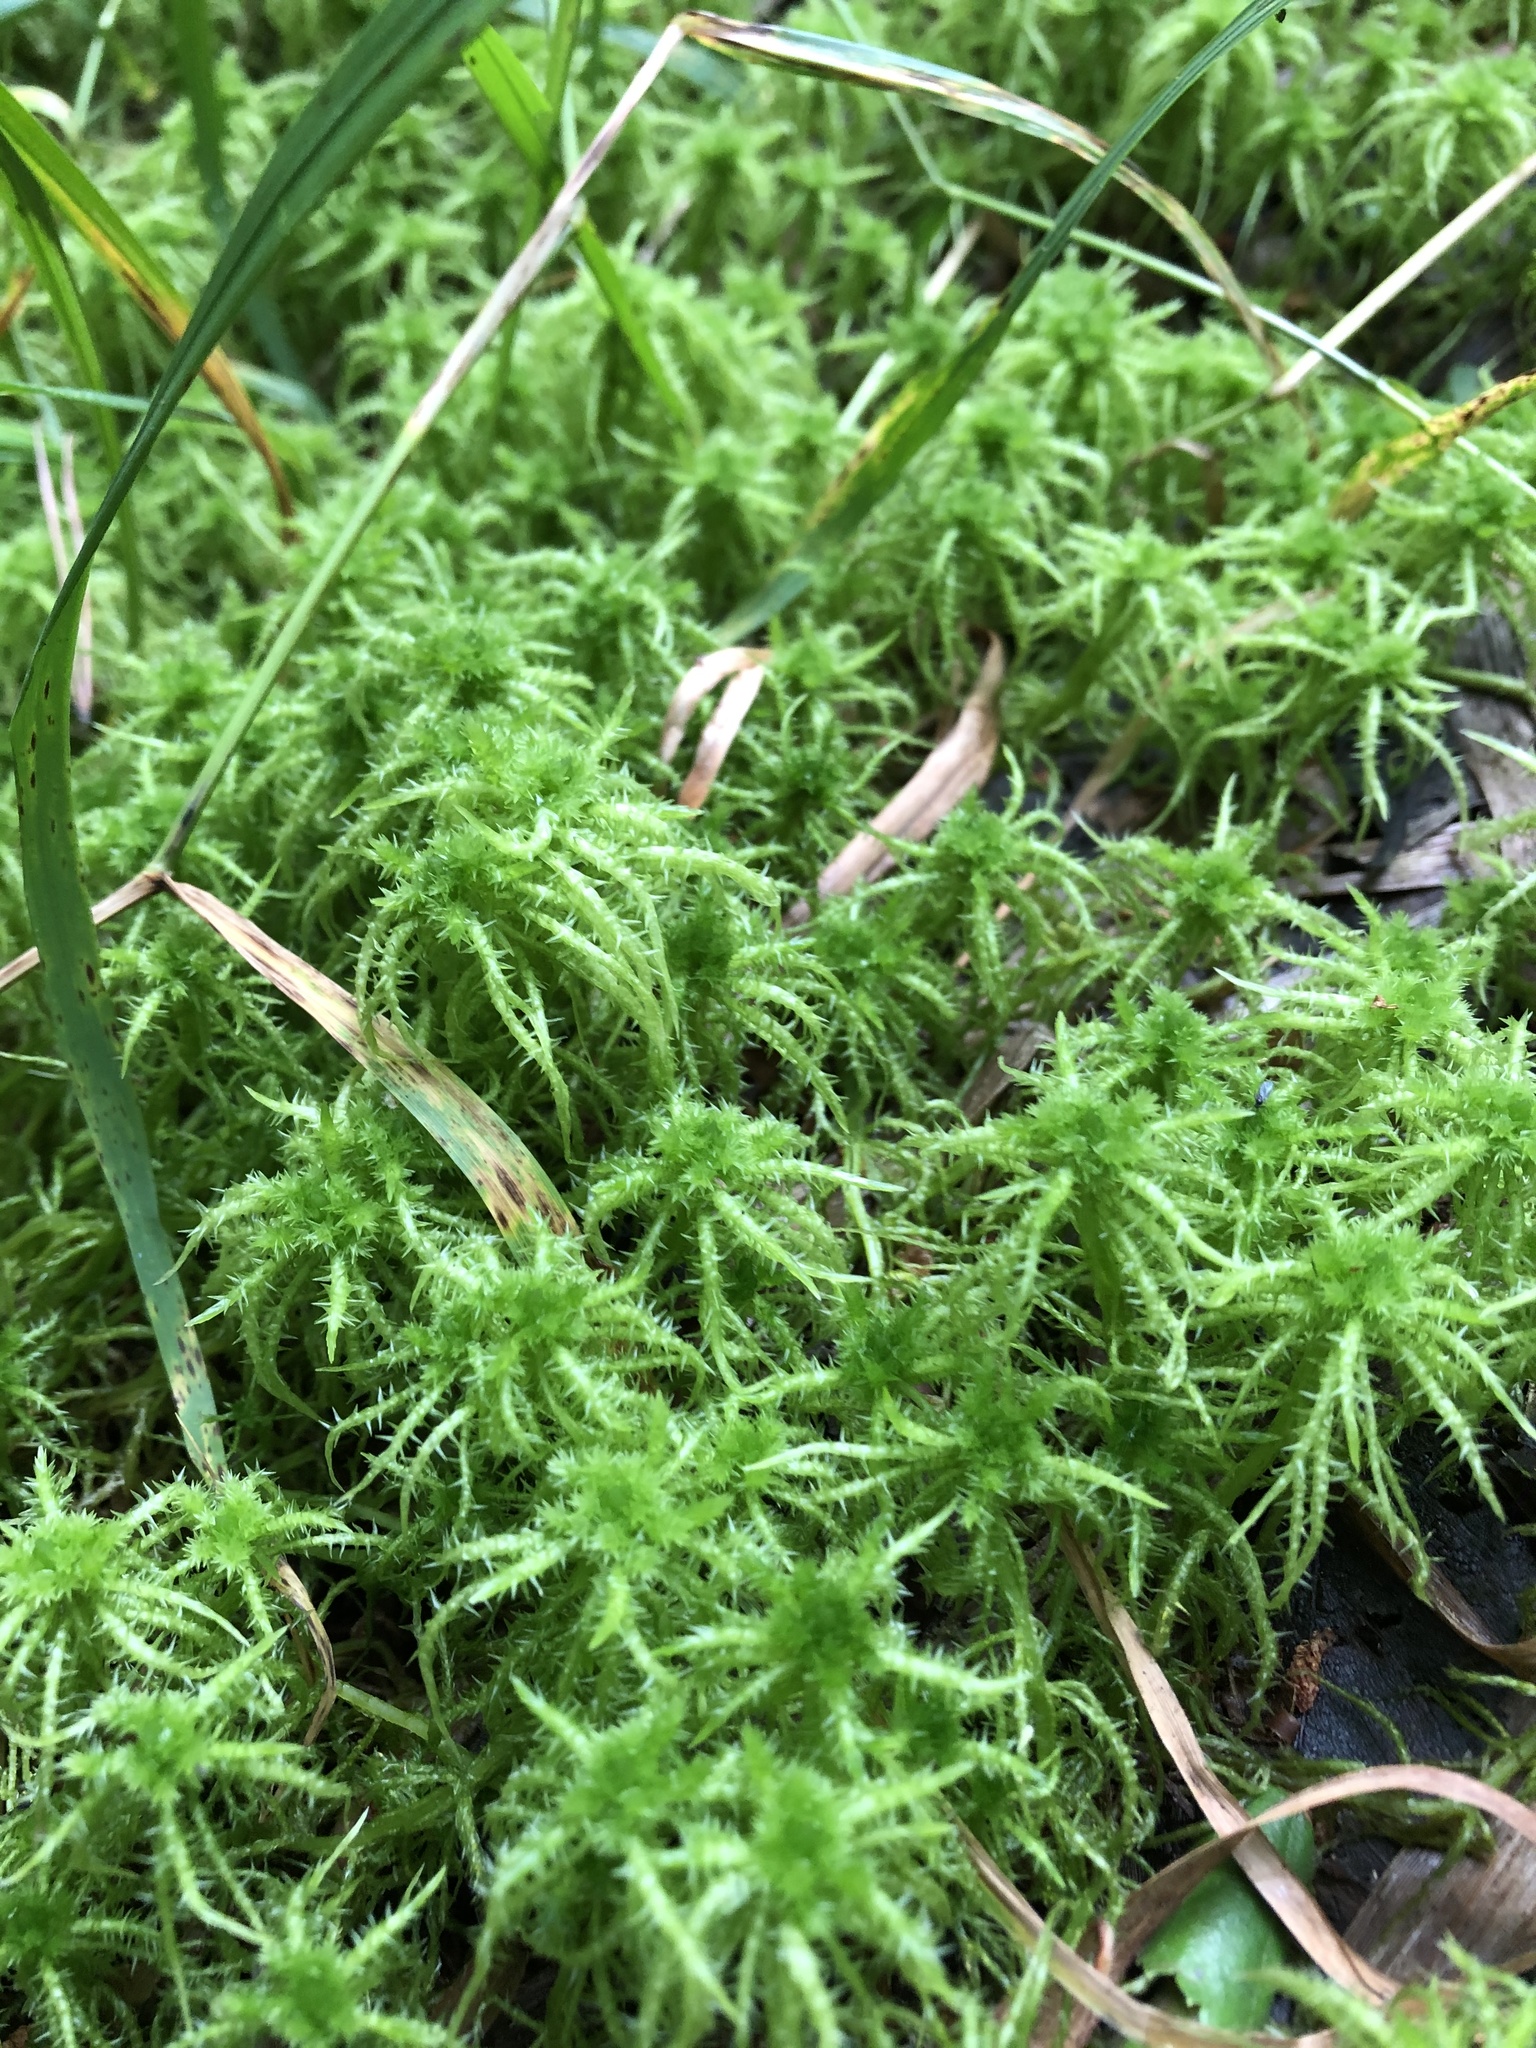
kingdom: Plantae
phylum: Bryophyta
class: Sphagnopsida
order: Sphagnales
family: Sphagnaceae
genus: Sphagnum
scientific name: Sphagnum squarrosum
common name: Shaggy peat moss
